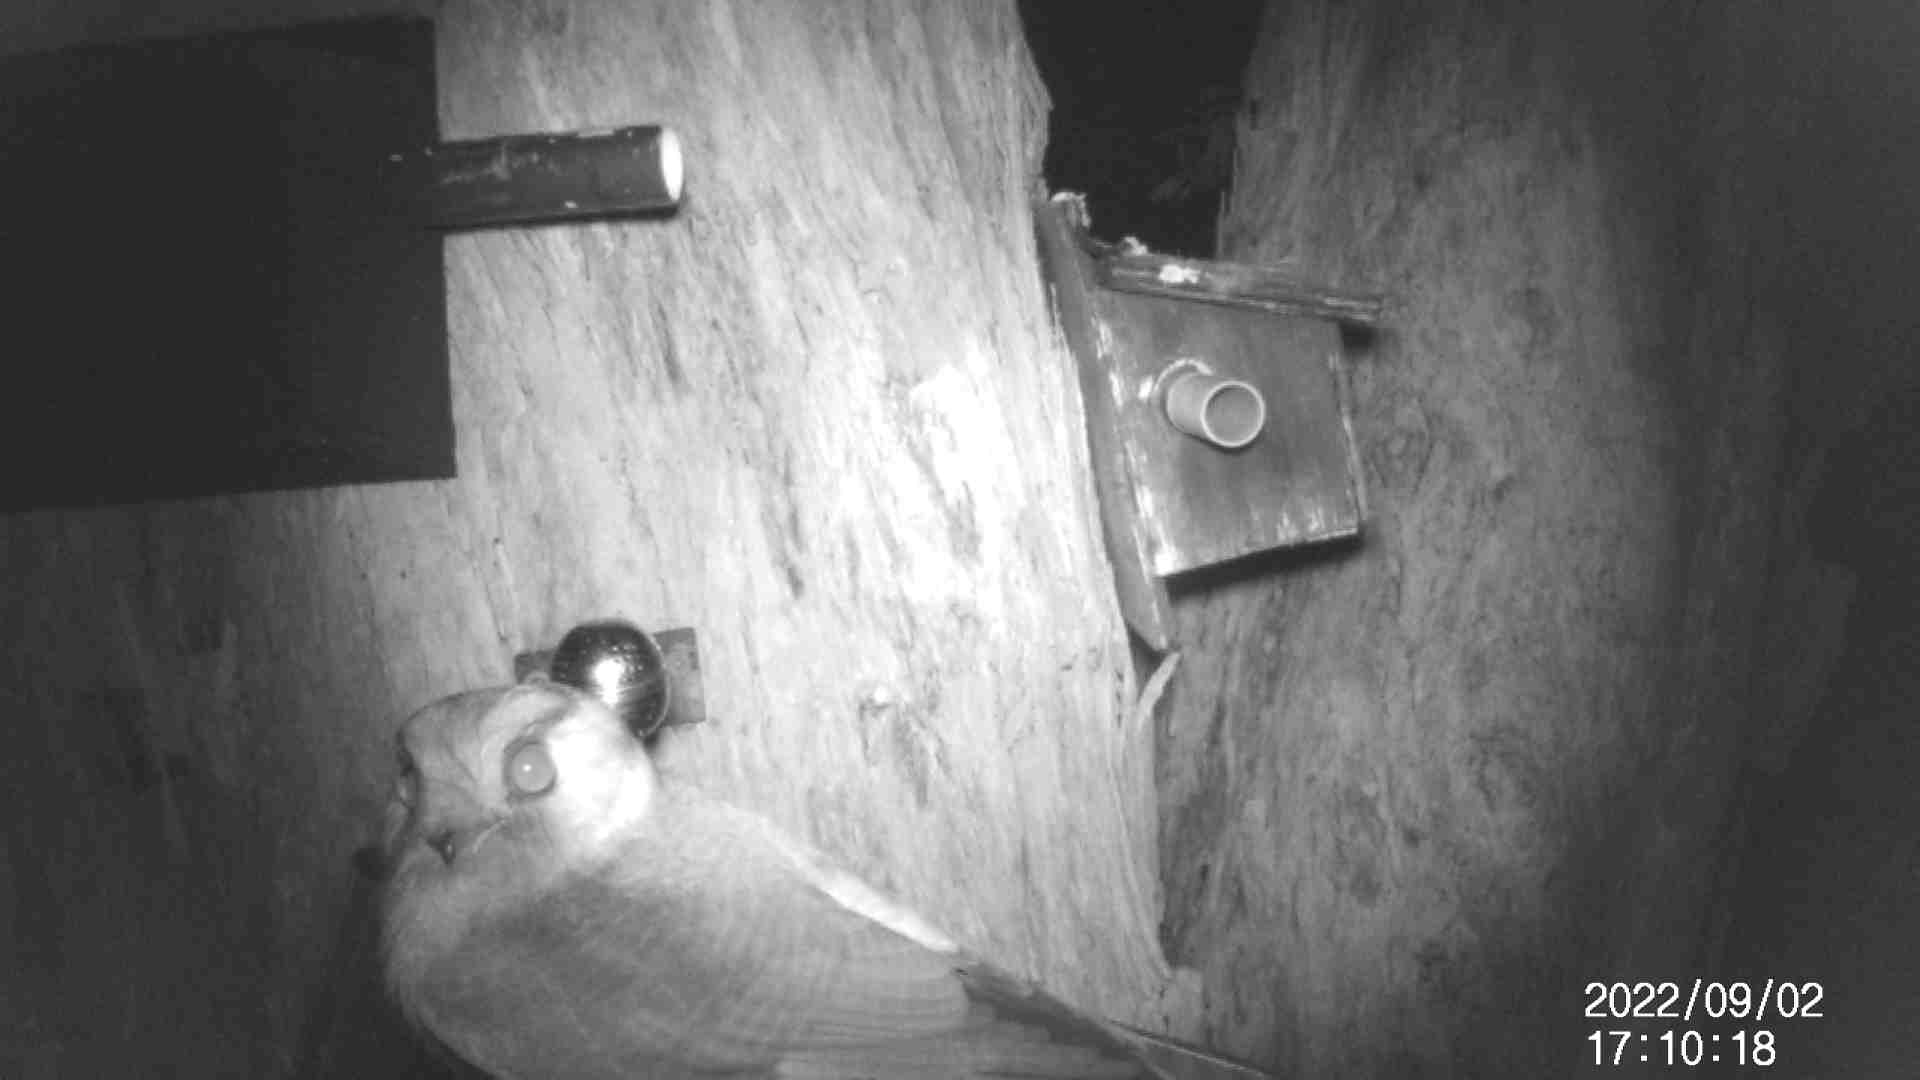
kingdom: Animalia
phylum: Chordata
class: Aves
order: Apodiformes
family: Aegothelidae
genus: Aegotheles
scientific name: Aegotheles cristatus
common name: Australian owlet-nightjar
